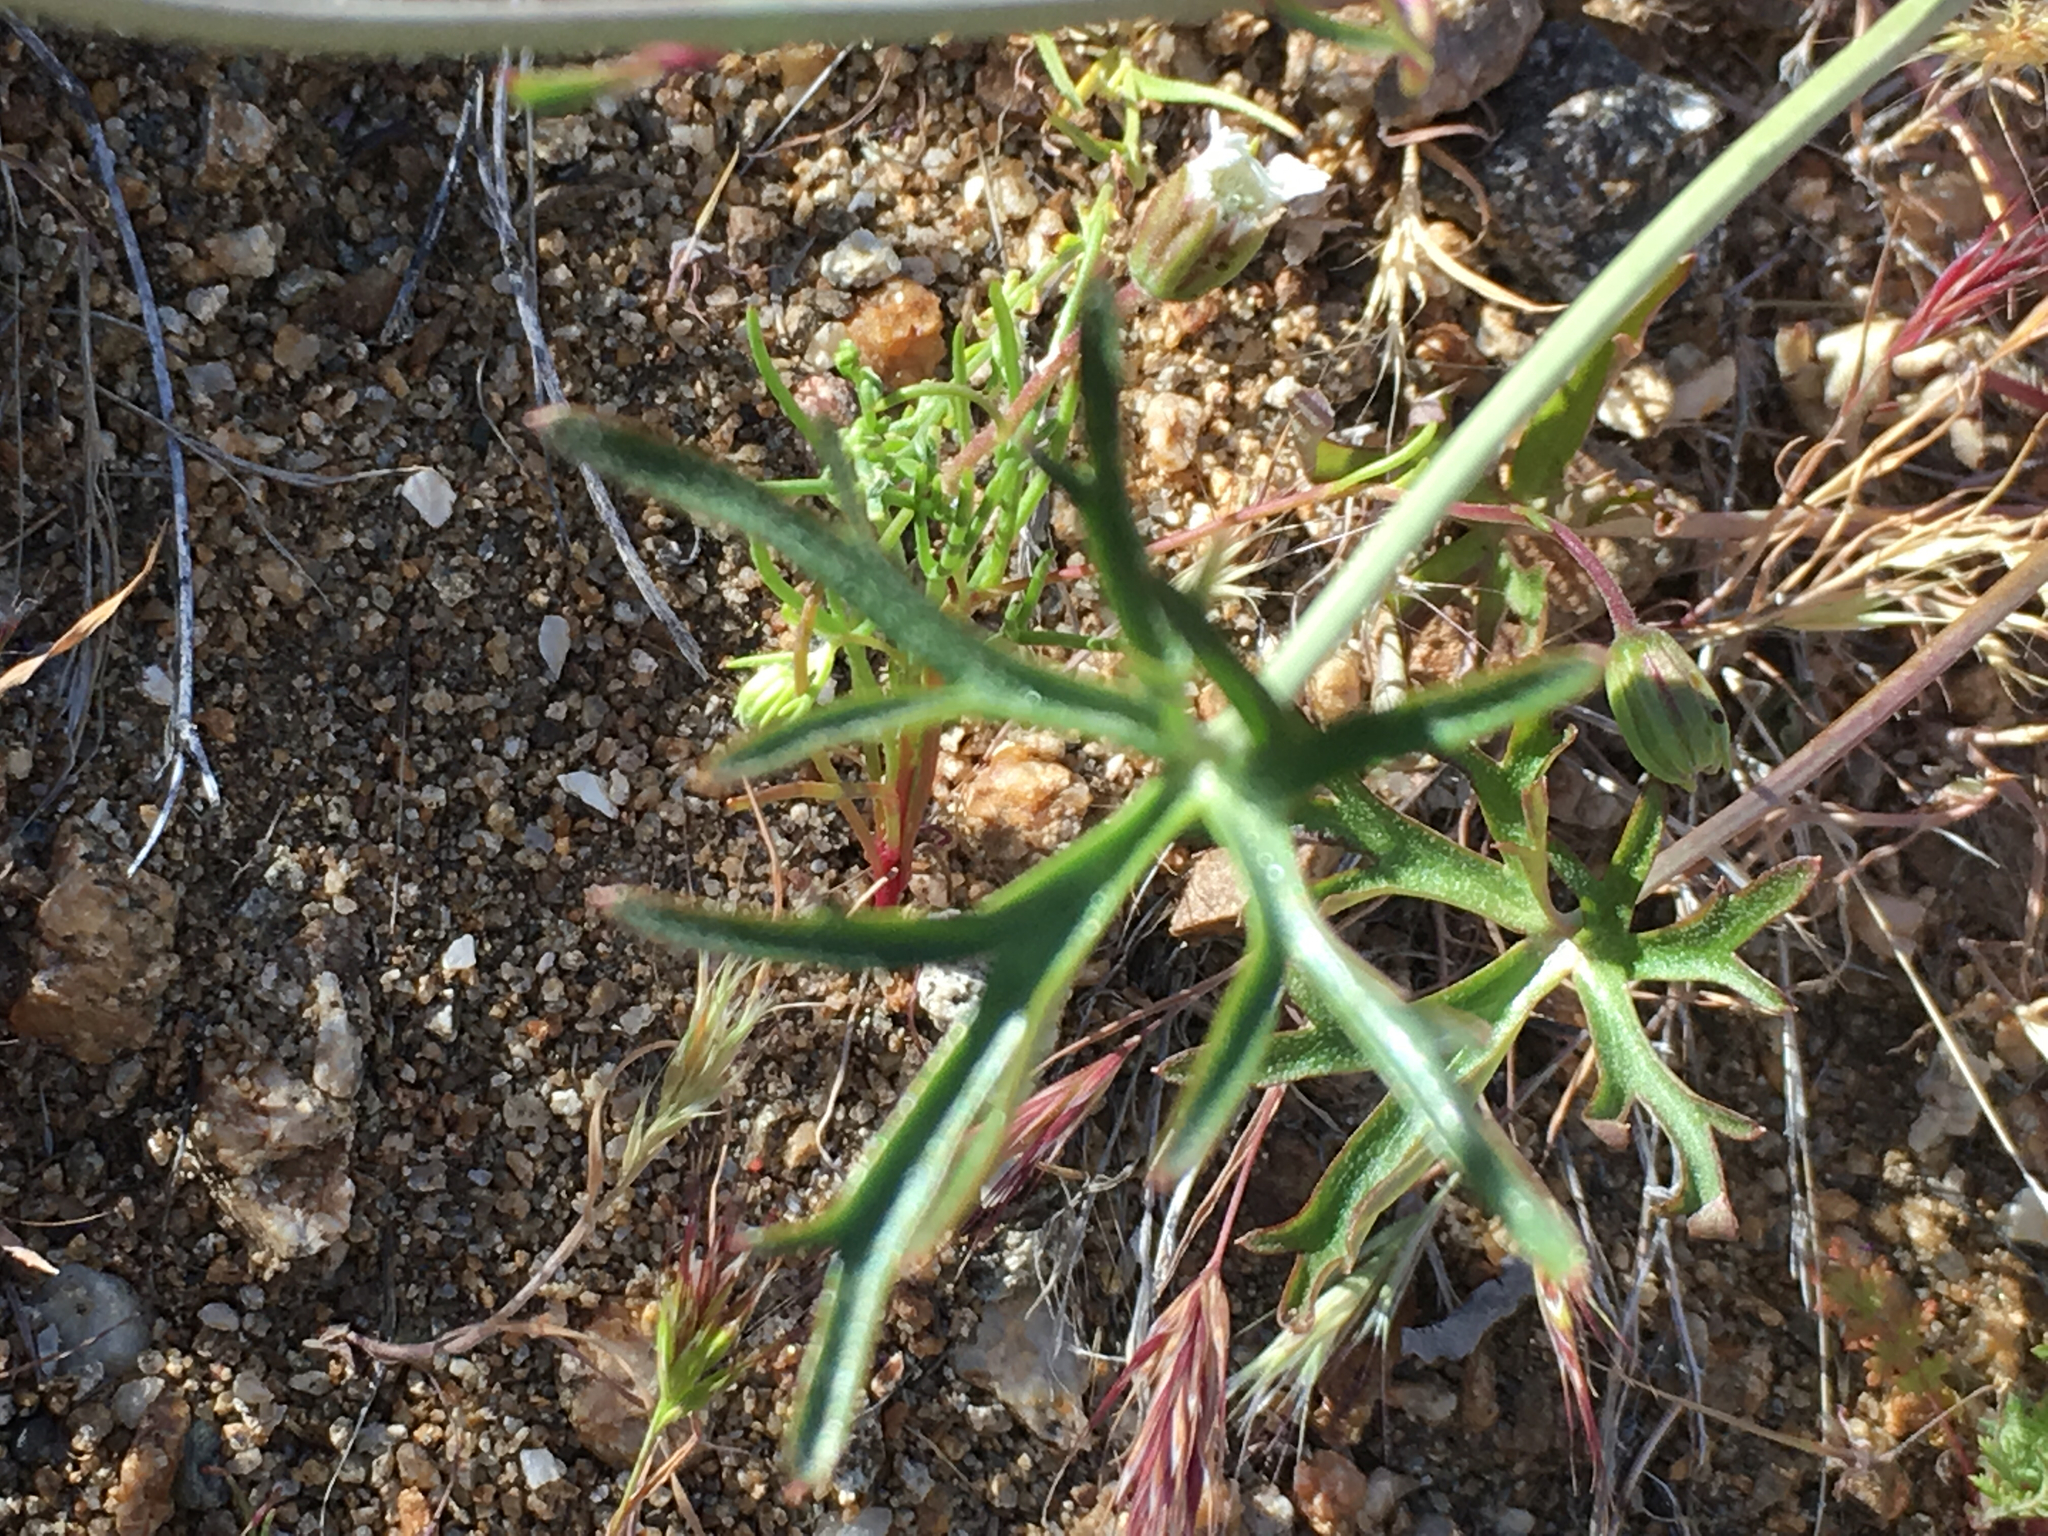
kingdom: Plantae
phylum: Tracheophyta
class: Magnoliopsida
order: Ranunculales
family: Ranunculaceae
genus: Delphinium
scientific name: Delphinium parishii
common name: Apache larkspur
